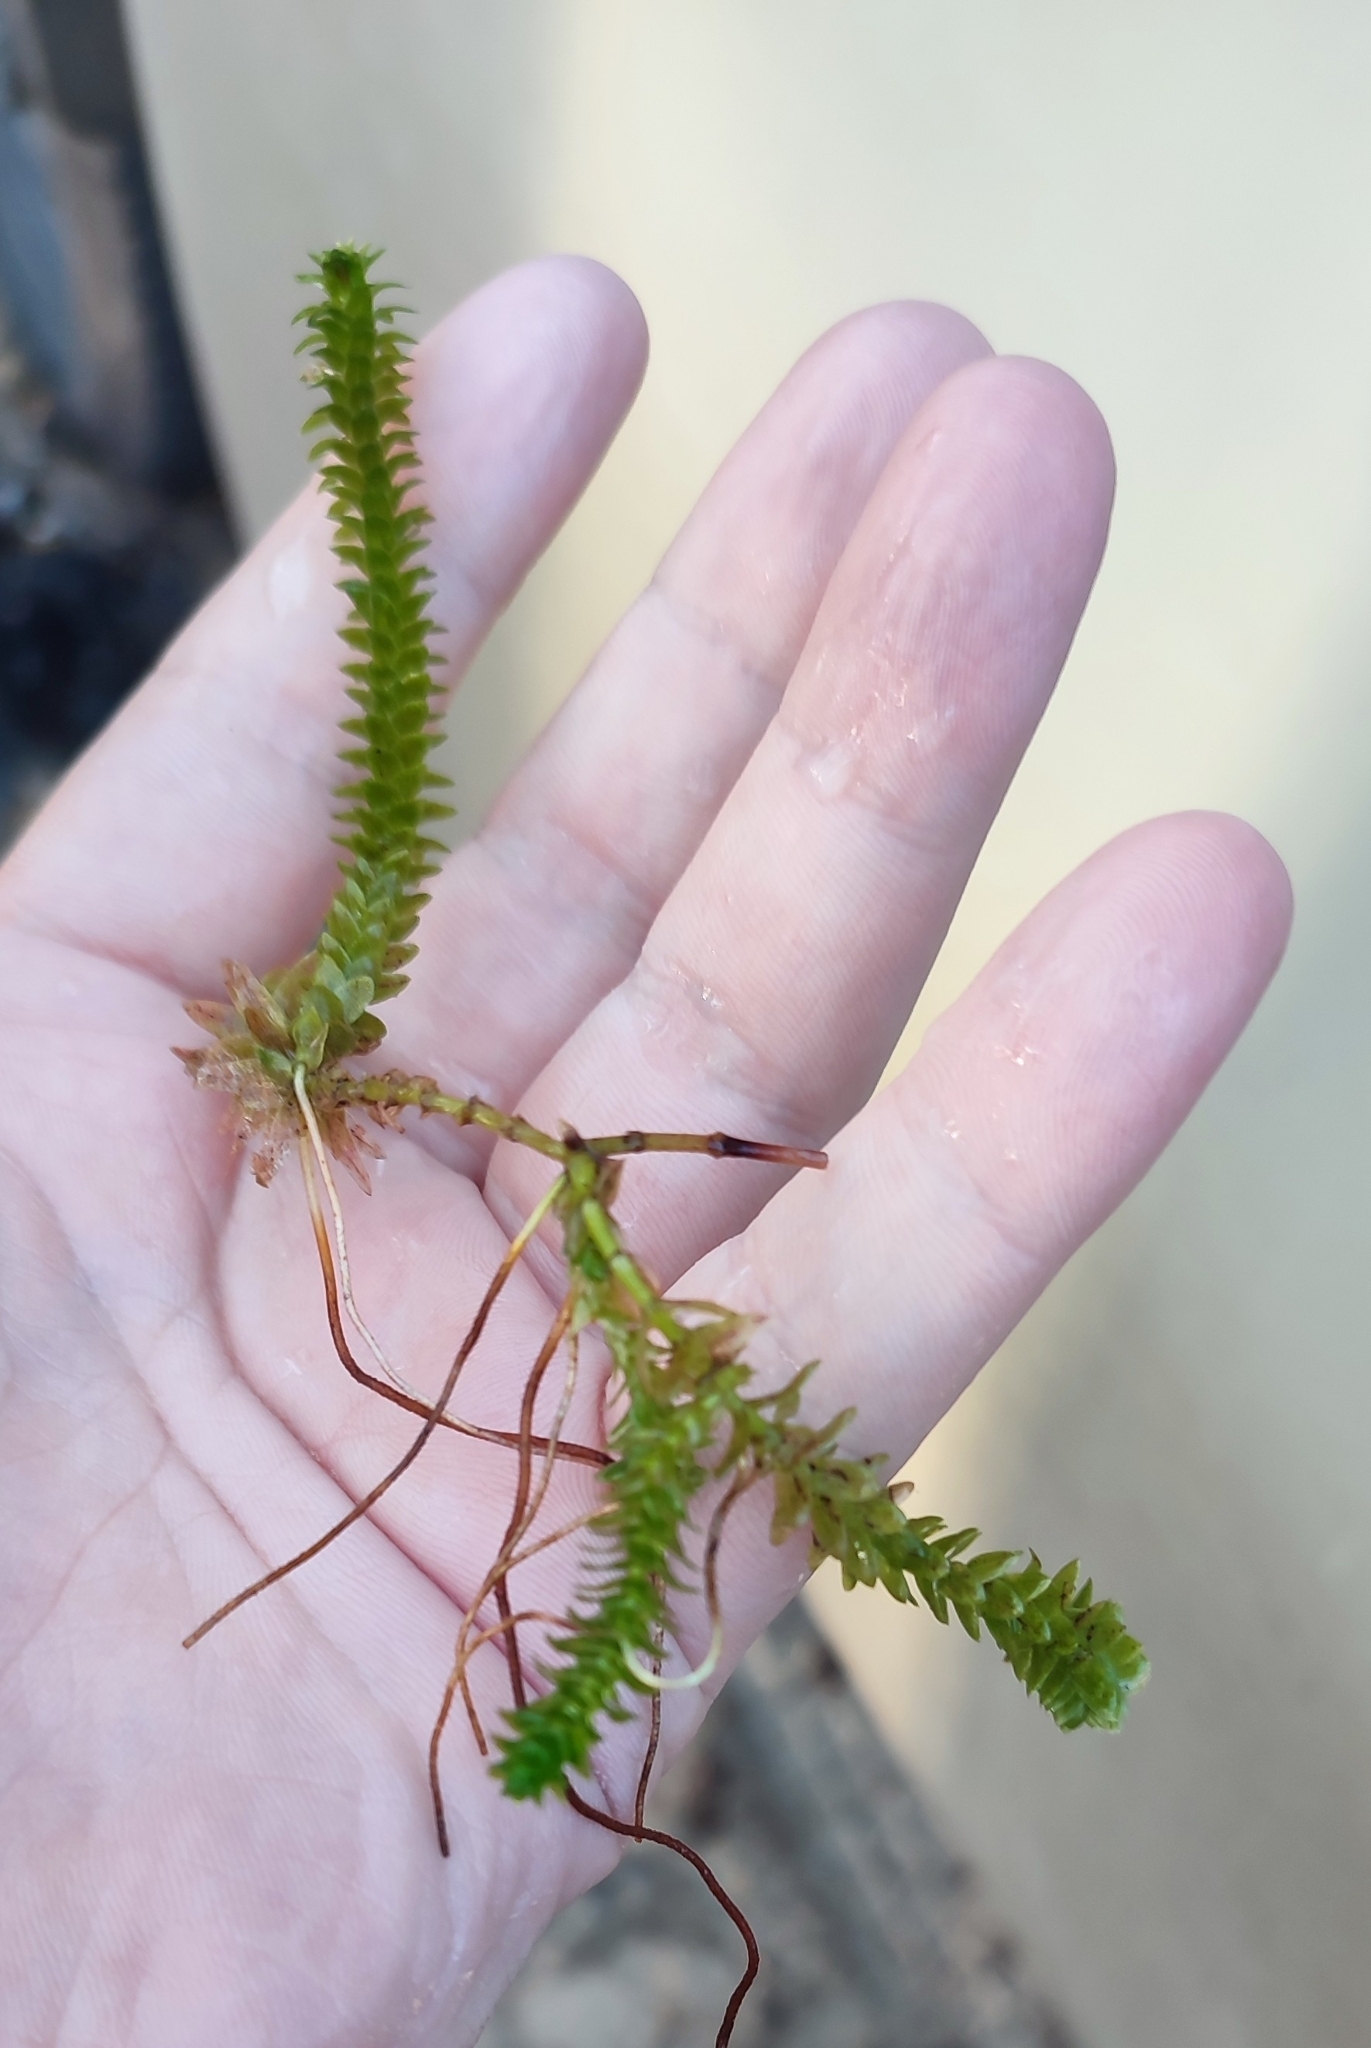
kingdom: Plantae
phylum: Tracheophyta
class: Liliopsida
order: Alismatales
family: Hydrocharitaceae
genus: Elodea
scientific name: Elodea canadensis
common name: Canadian waterweed
